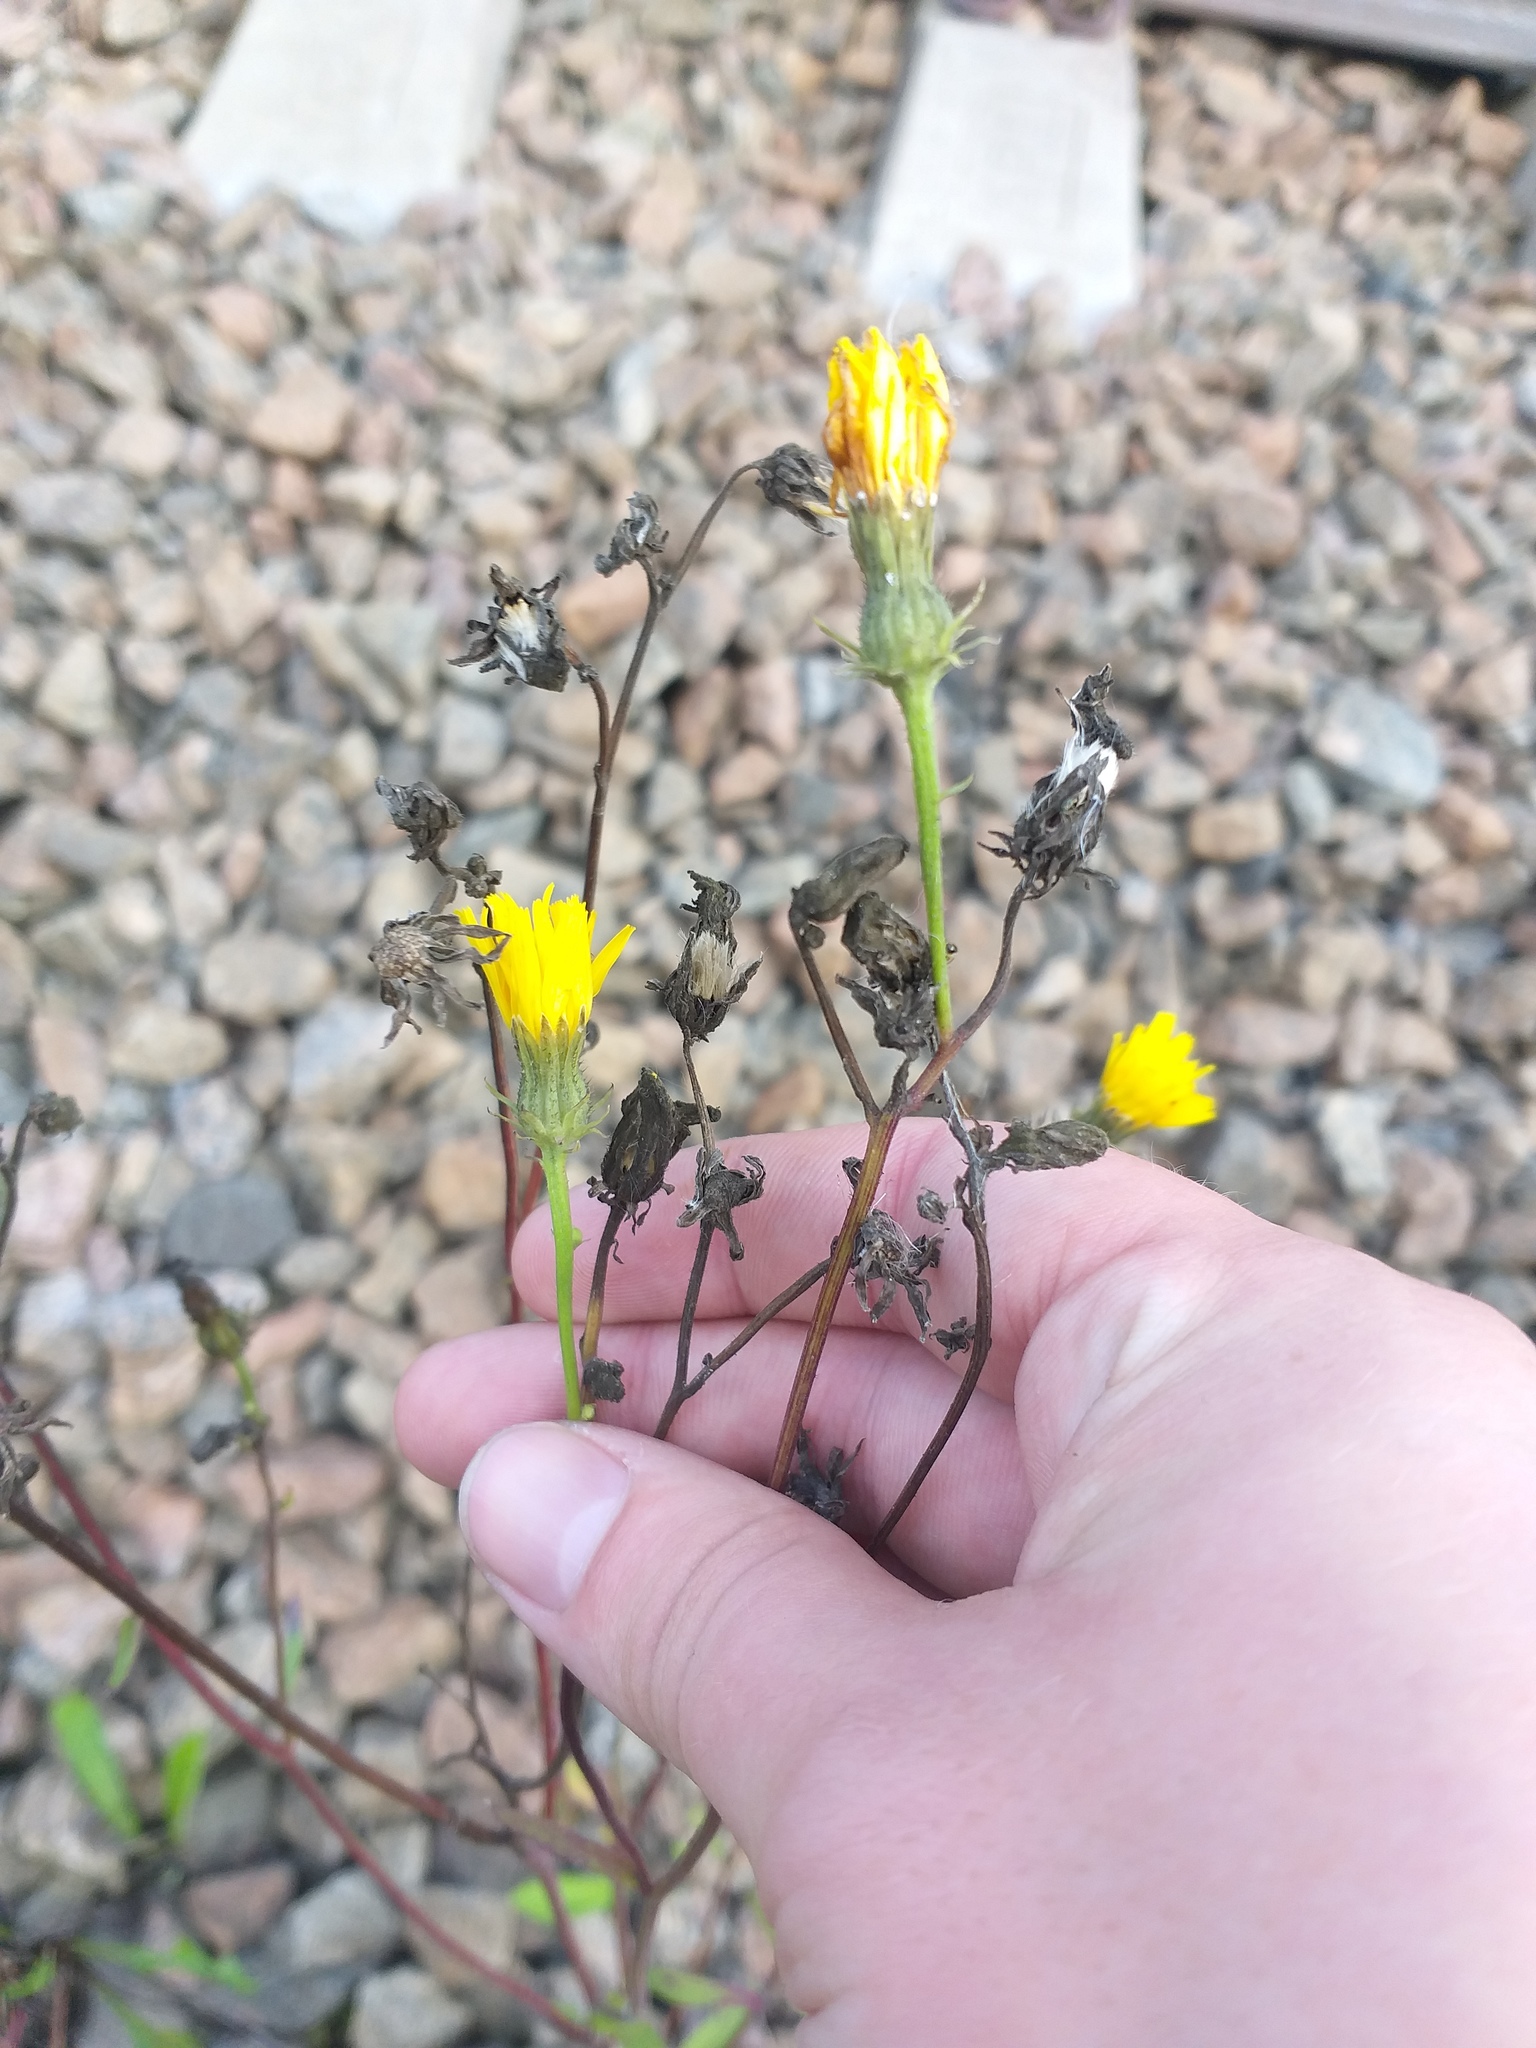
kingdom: Plantae
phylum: Tracheophyta
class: Magnoliopsida
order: Asterales
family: Asteraceae
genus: Picris
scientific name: Picris hieracioides
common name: Hawkweed oxtongue
